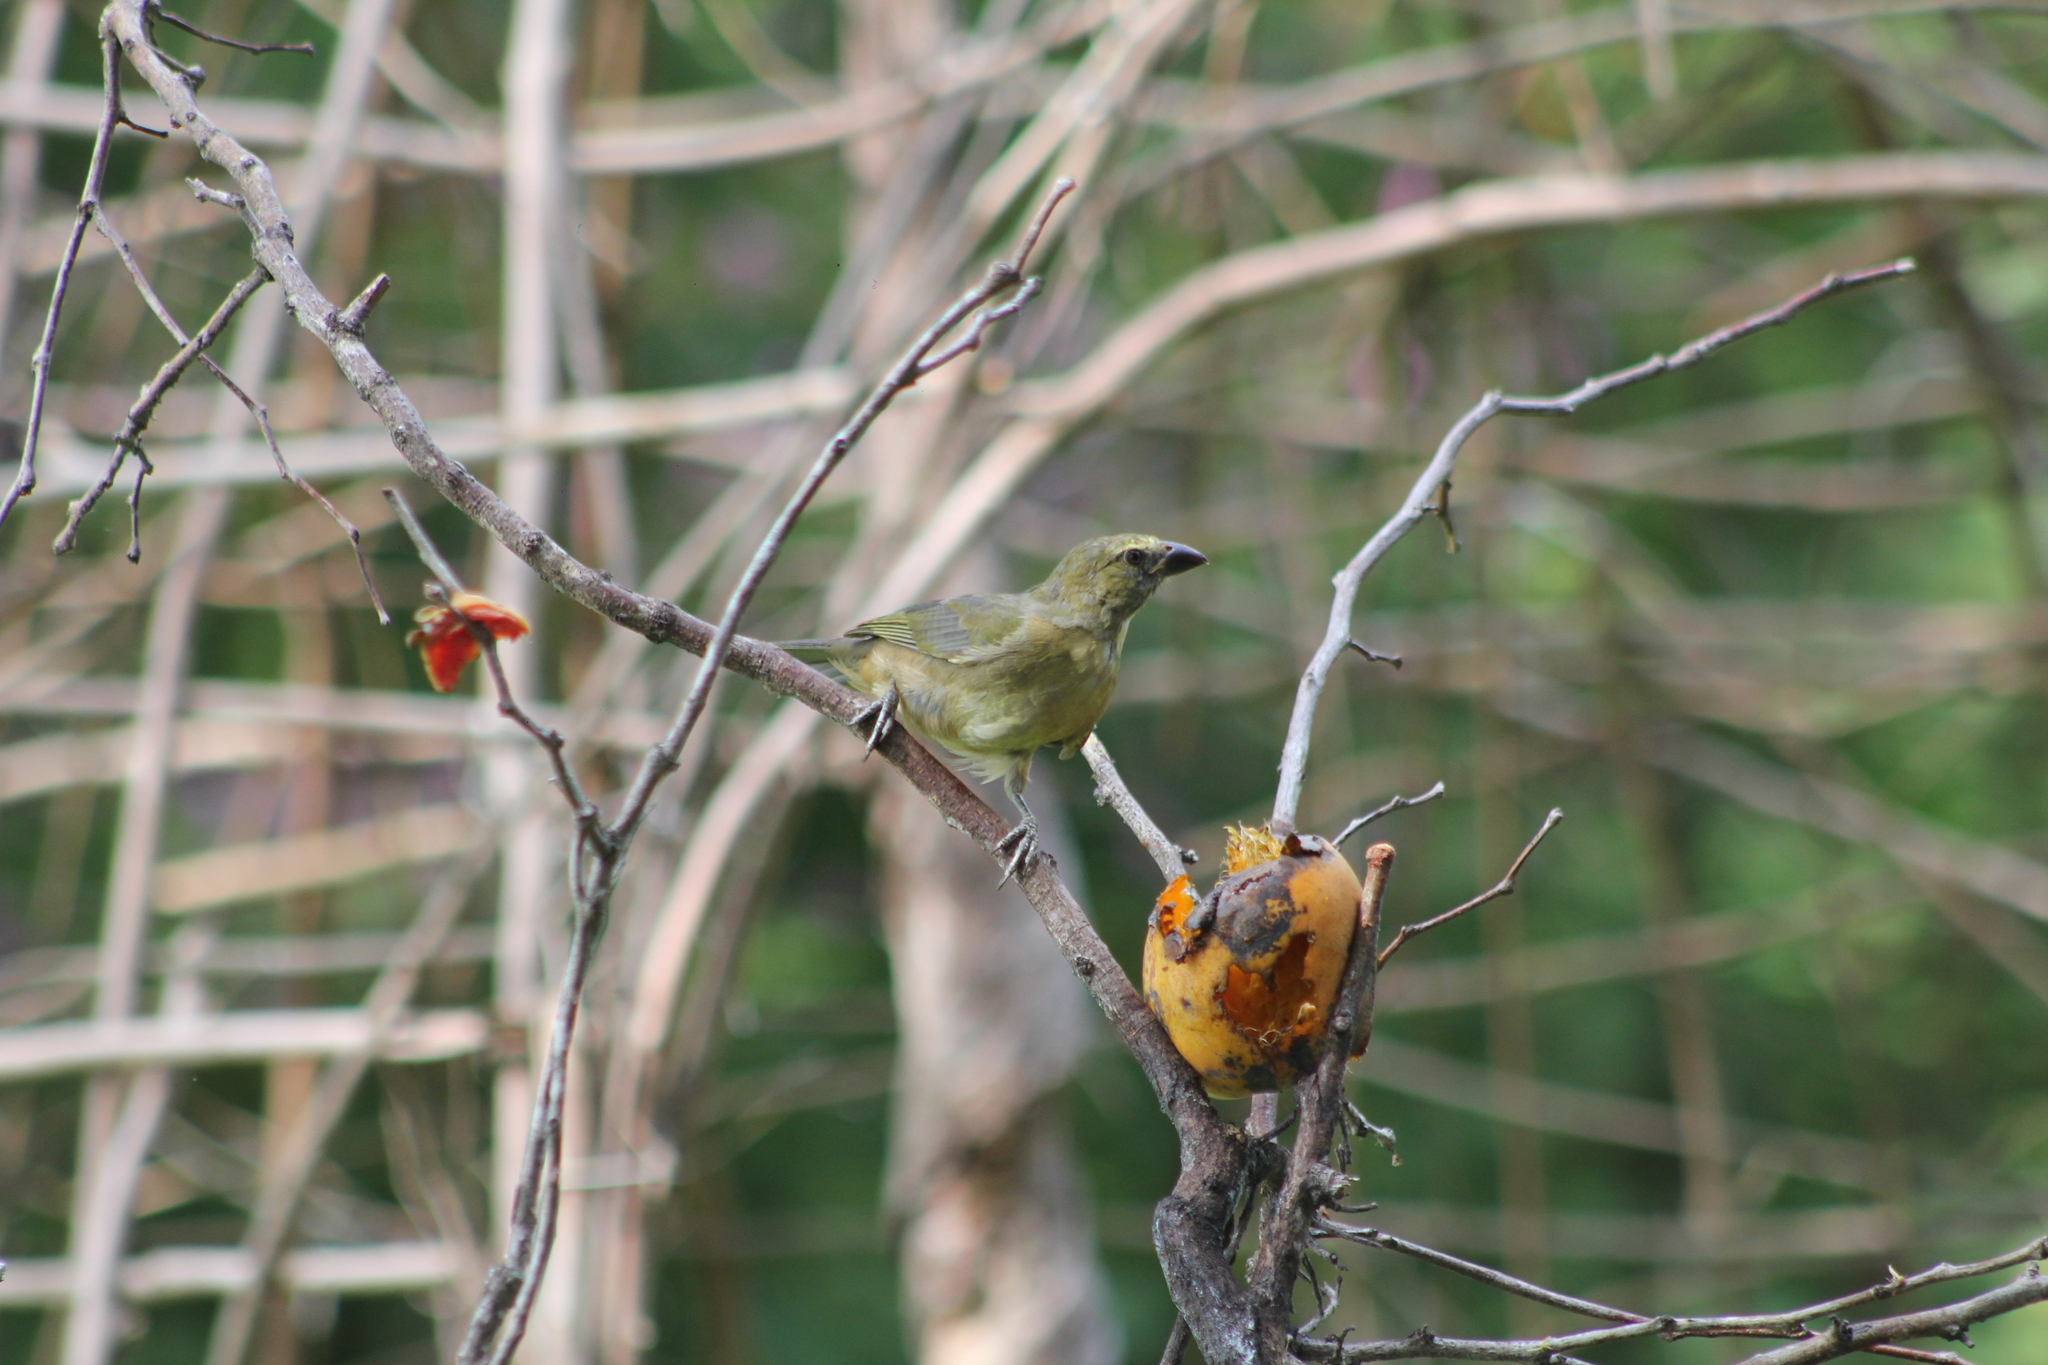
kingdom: Animalia
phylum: Chordata
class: Aves
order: Passeriformes
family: Thraupidae
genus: Saltator
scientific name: Saltator coerulescens
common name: Grayish saltator
